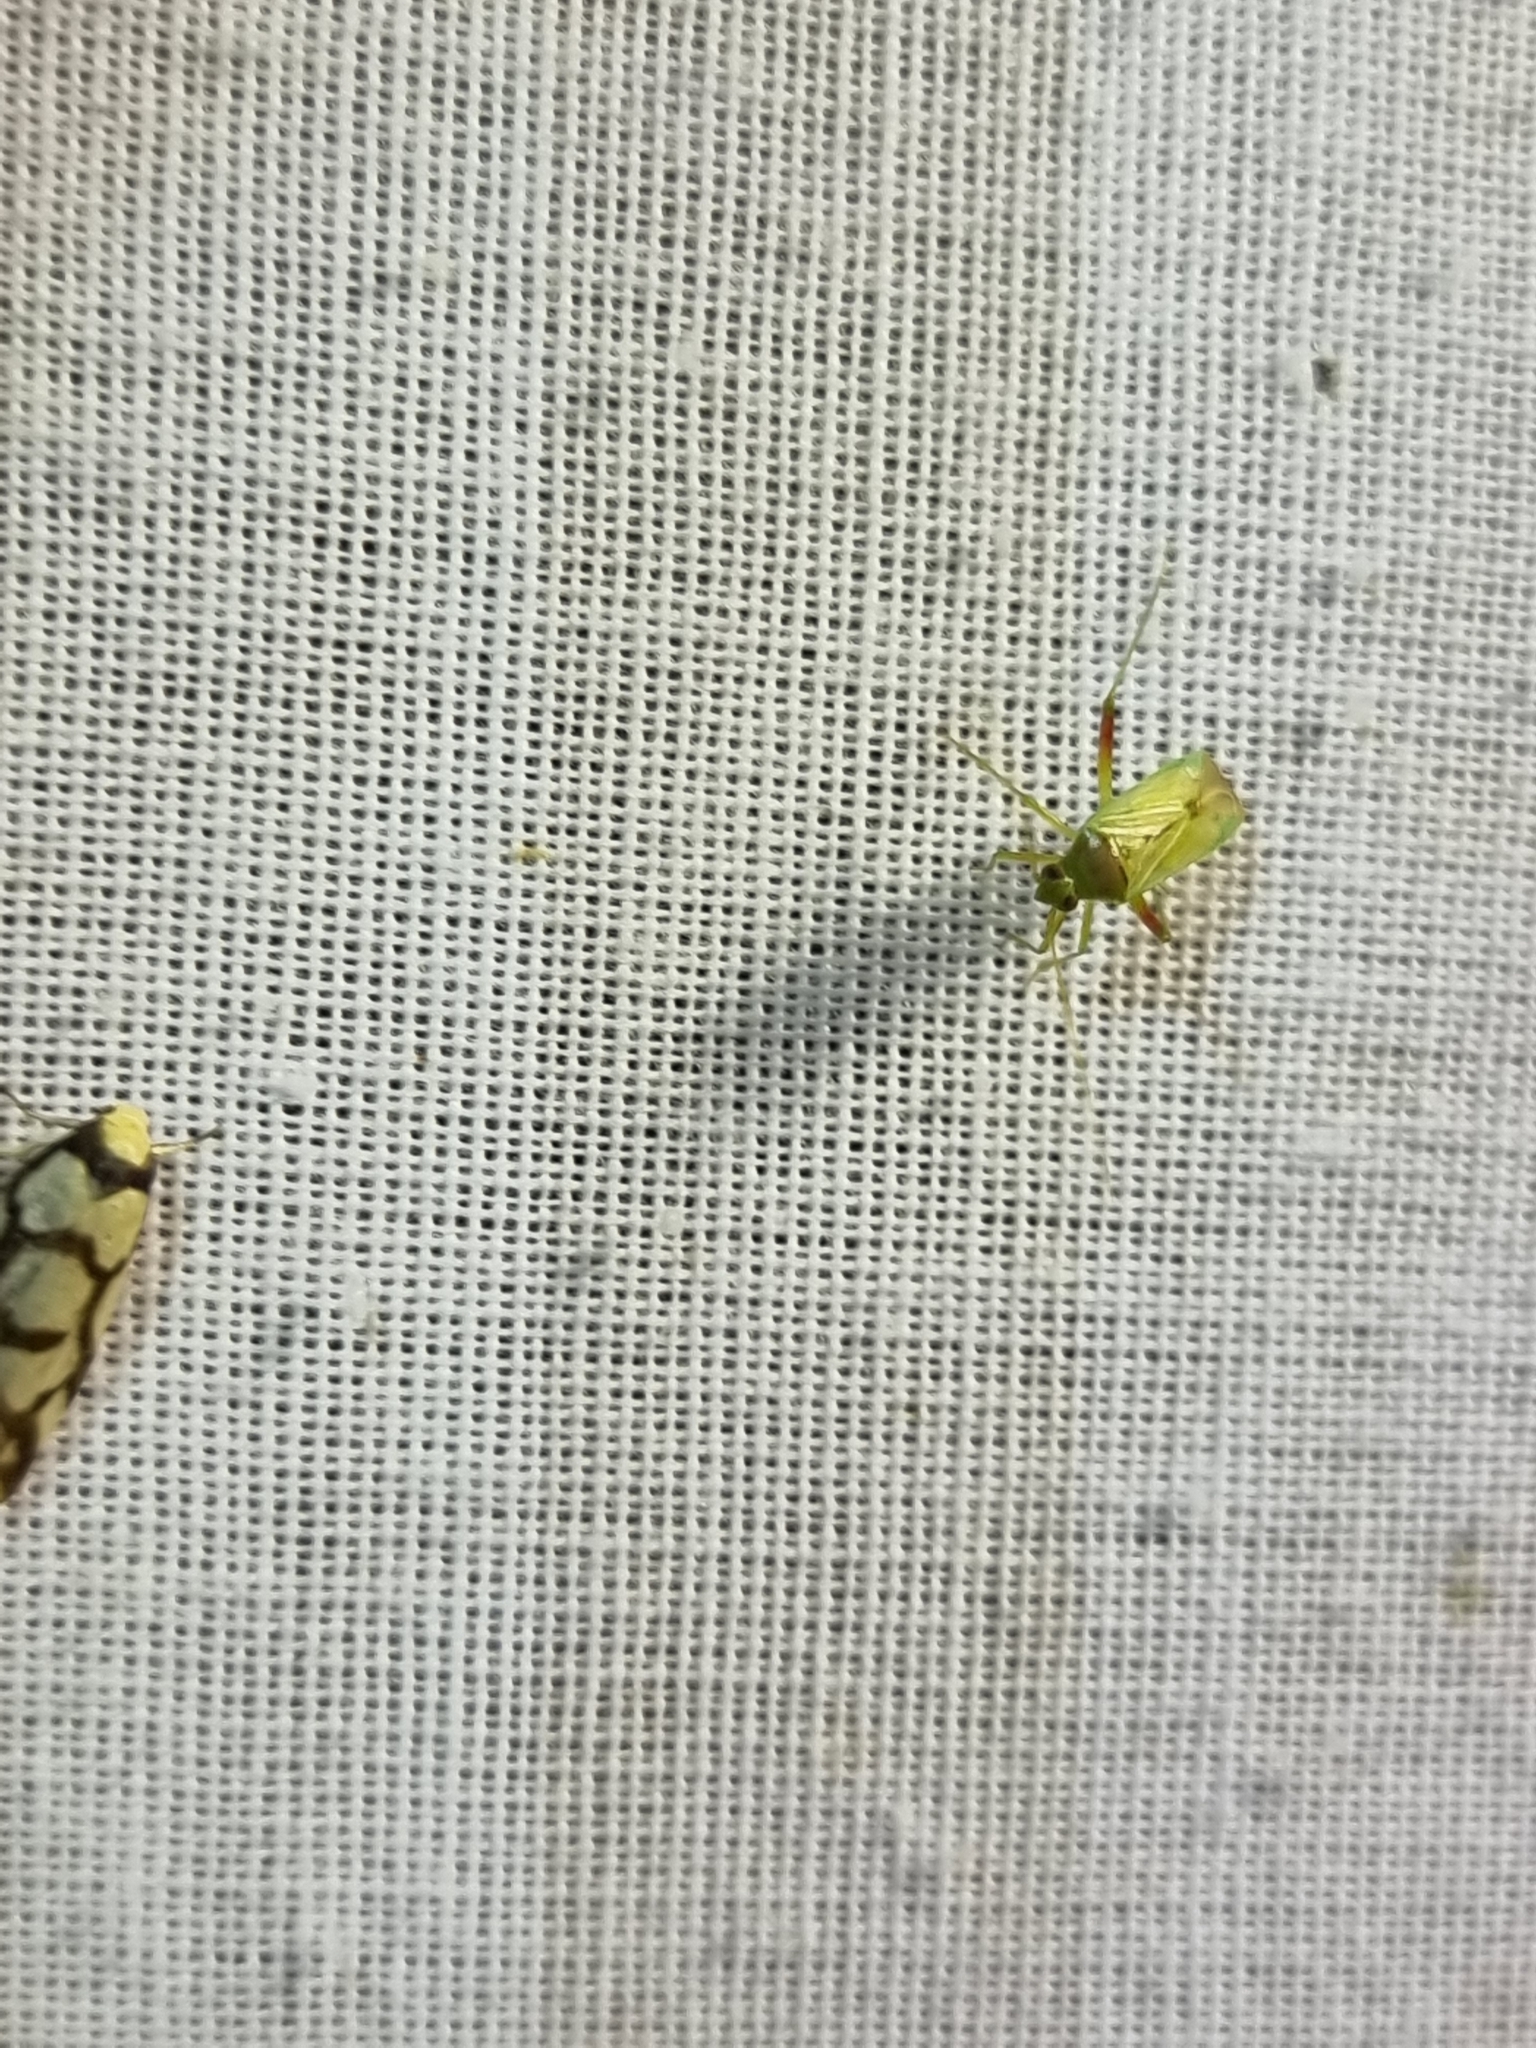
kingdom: Animalia
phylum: Arthropoda
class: Insecta
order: Lepidoptera
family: Erebidae
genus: Scaptesyle
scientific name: Scaptesyle dichotoma
